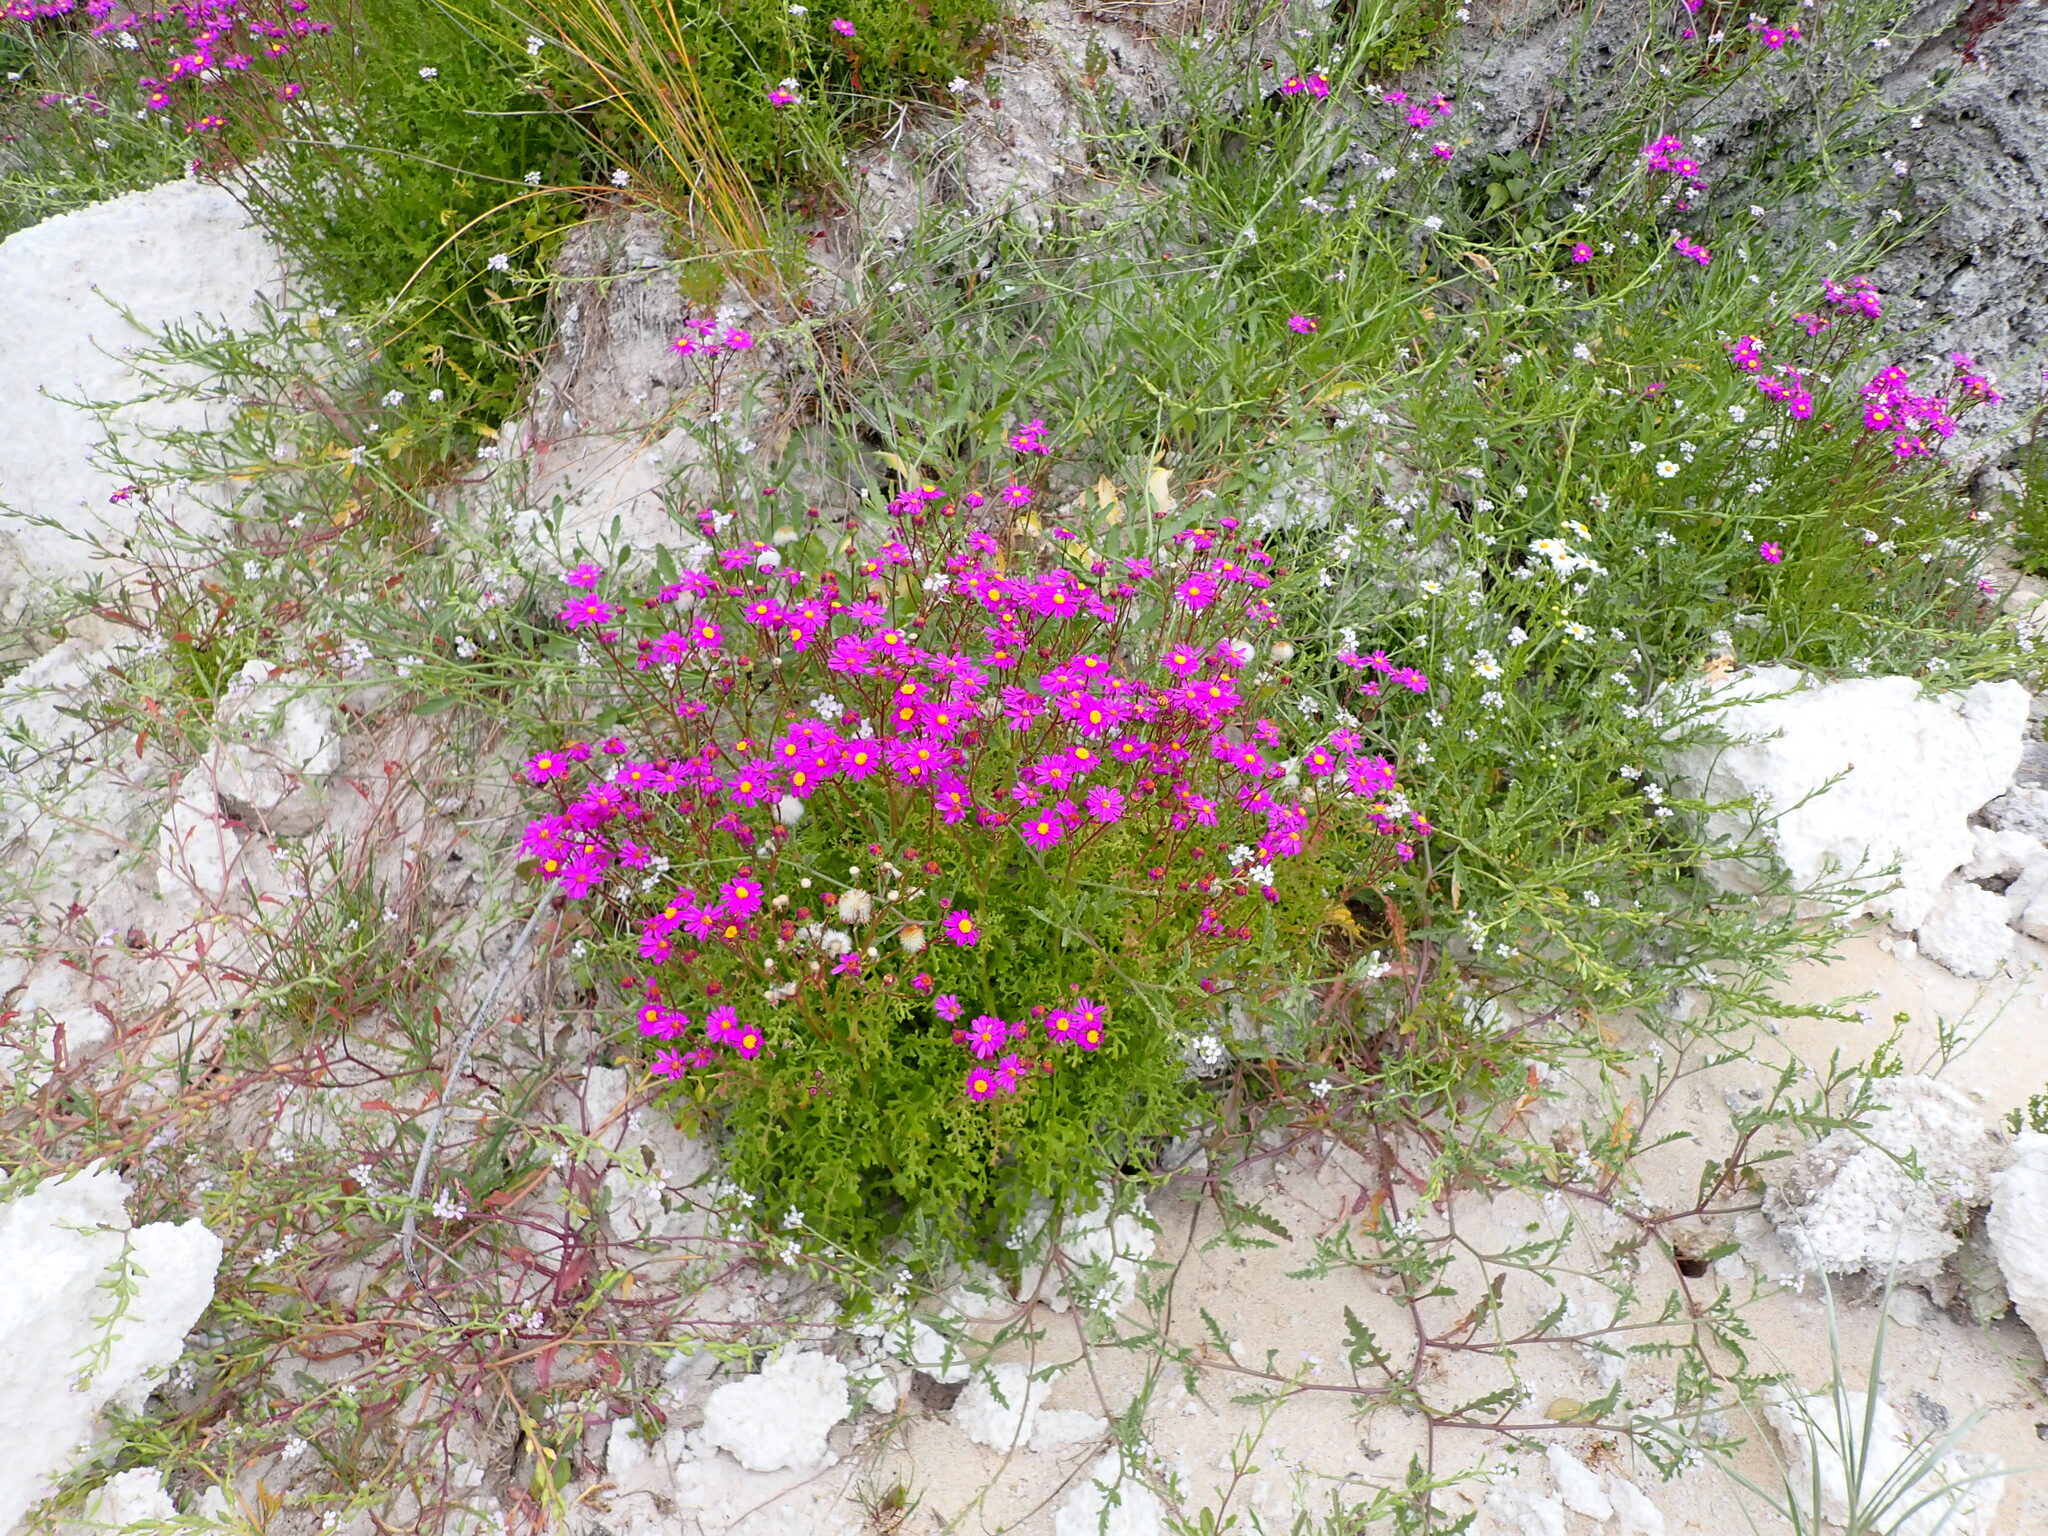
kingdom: Plantae
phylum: Tracheophyta
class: Magnoliopsida
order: Asterales
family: Asteraceae
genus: Senecio
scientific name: Senecio elegans
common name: Purple groundsel
